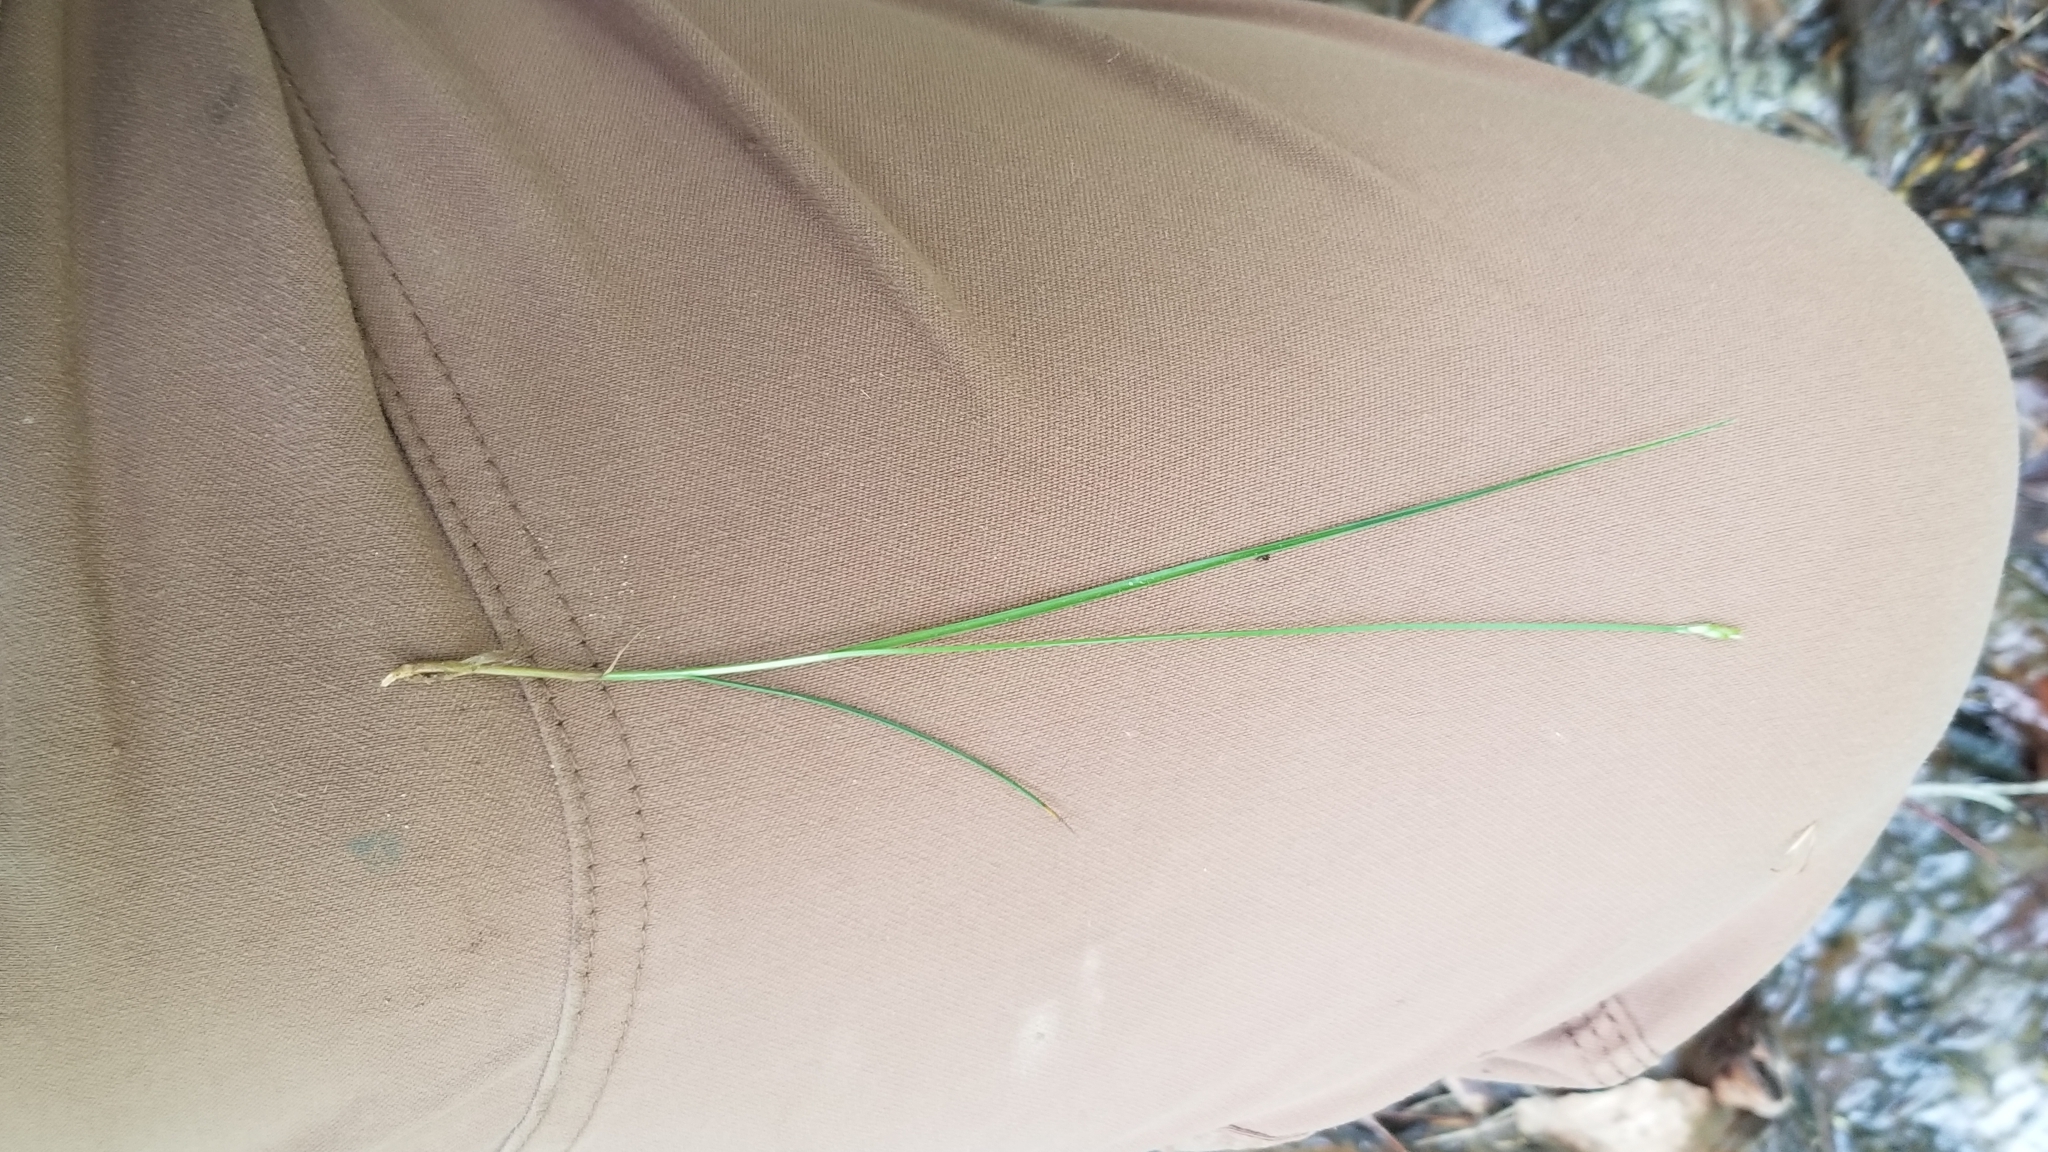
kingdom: Plantae
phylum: Tracheophyta
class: Liliopsida
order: Poales
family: Cyperaceae
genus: Carex
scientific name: Carex leptalea
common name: Bristly-stalked sedge
